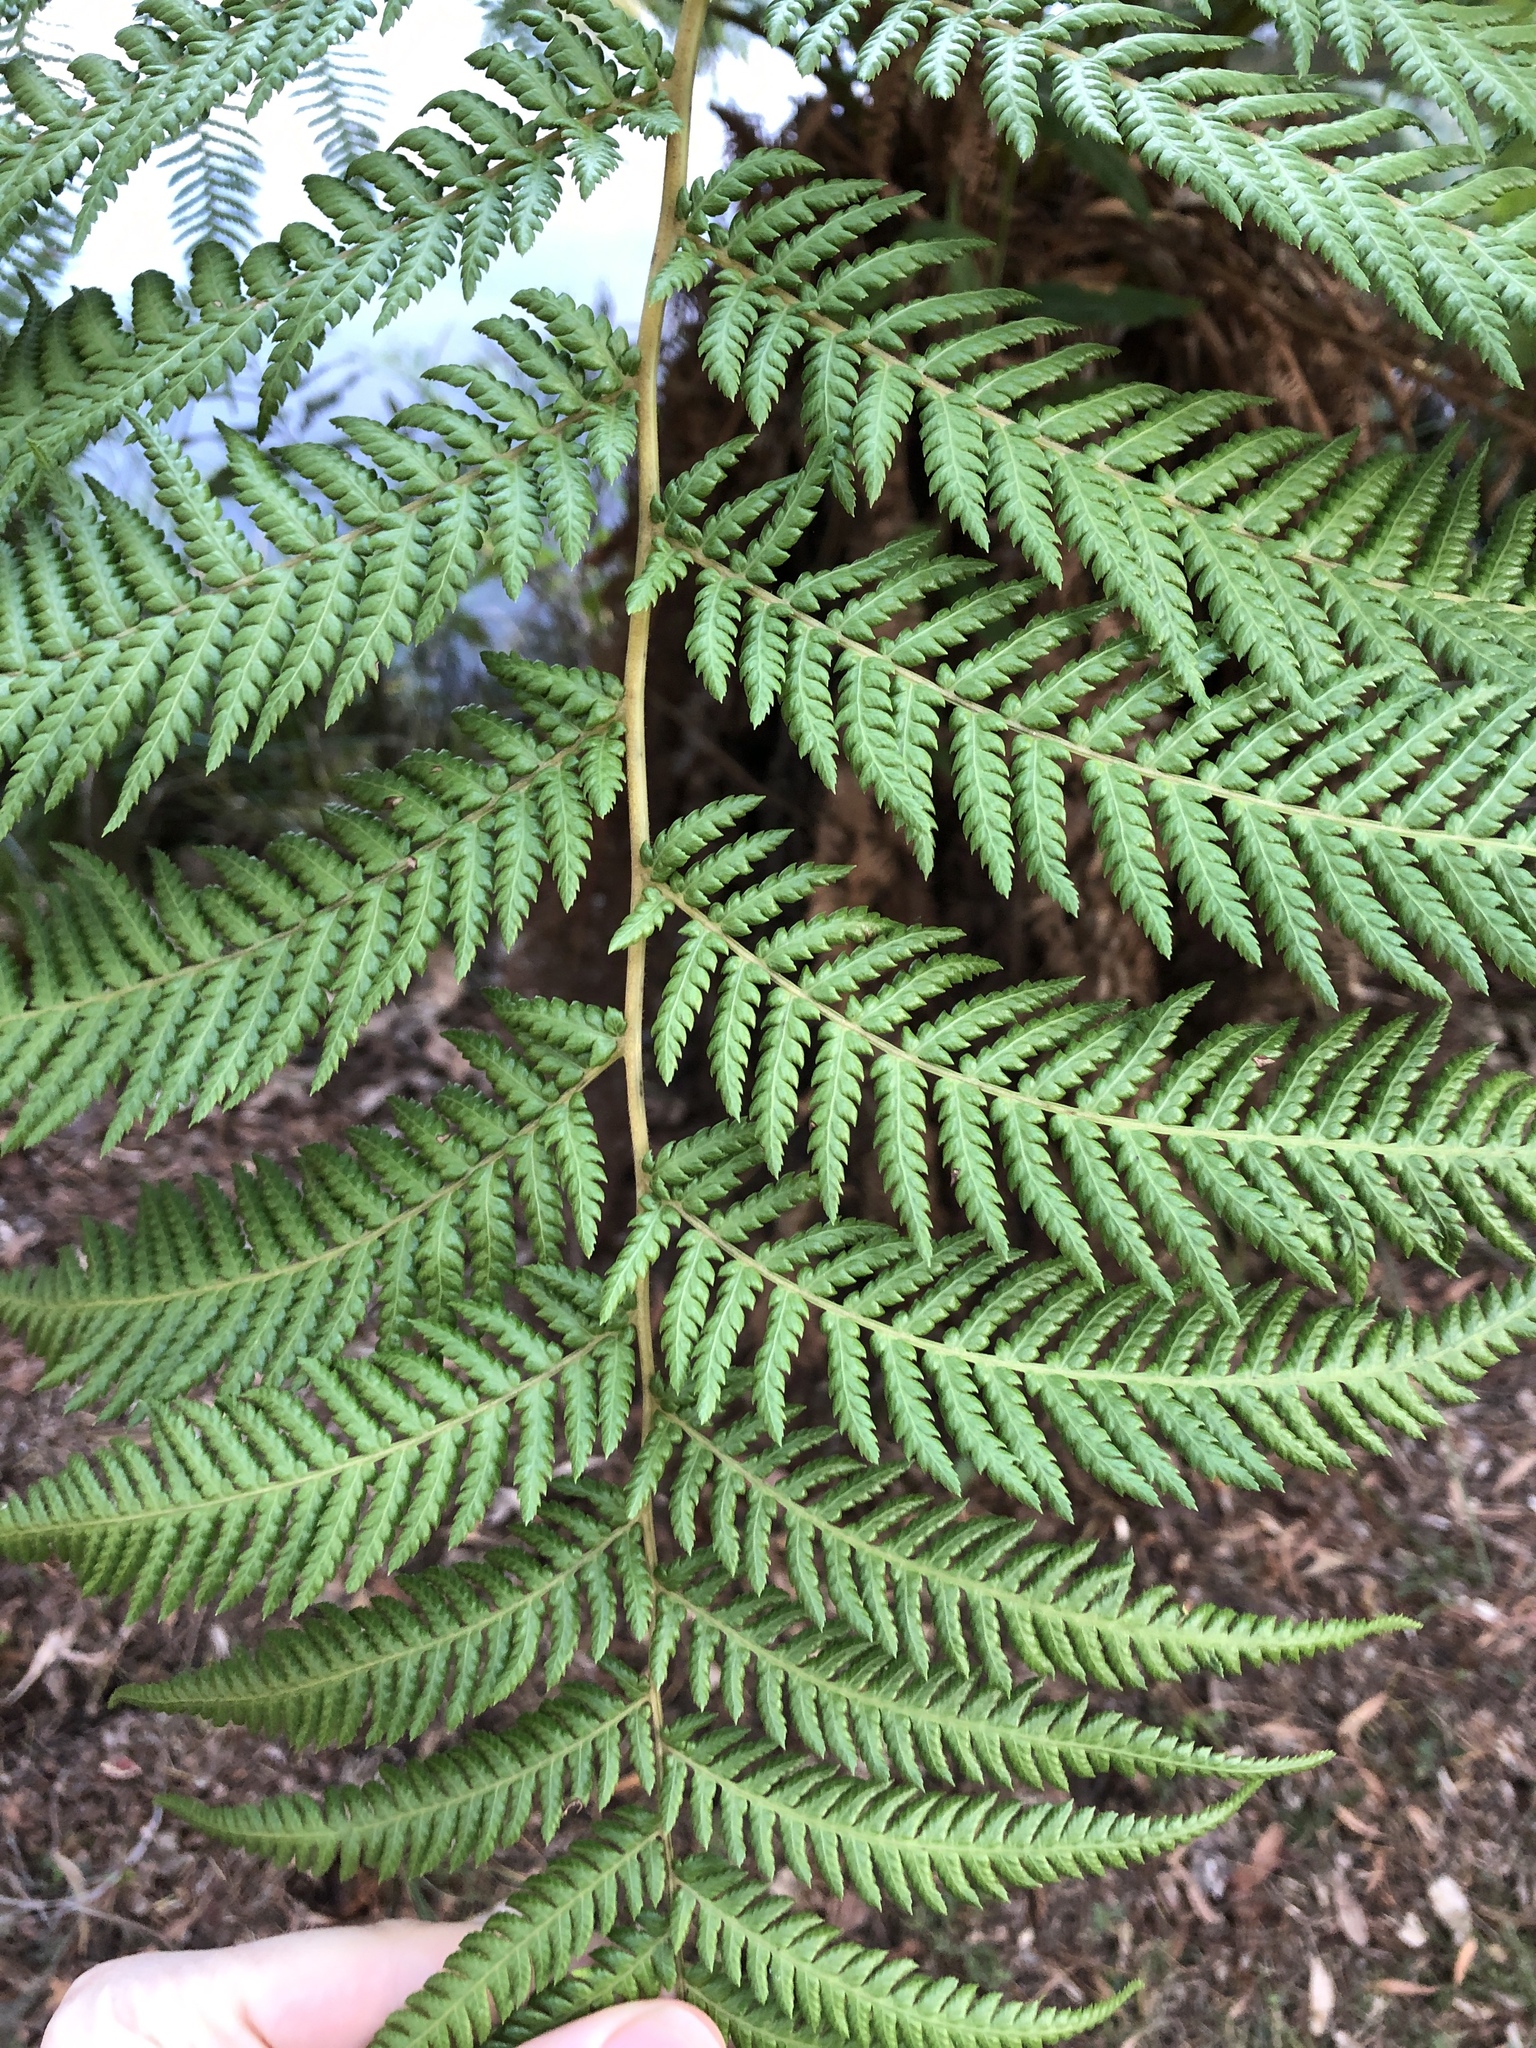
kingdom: Plantae
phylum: Tracheophyta
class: Polypodiopsida
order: Cyatheales
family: Dicksoniaceae
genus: Dicksonia
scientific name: Dicksonia antarctica
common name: Australian treefern
